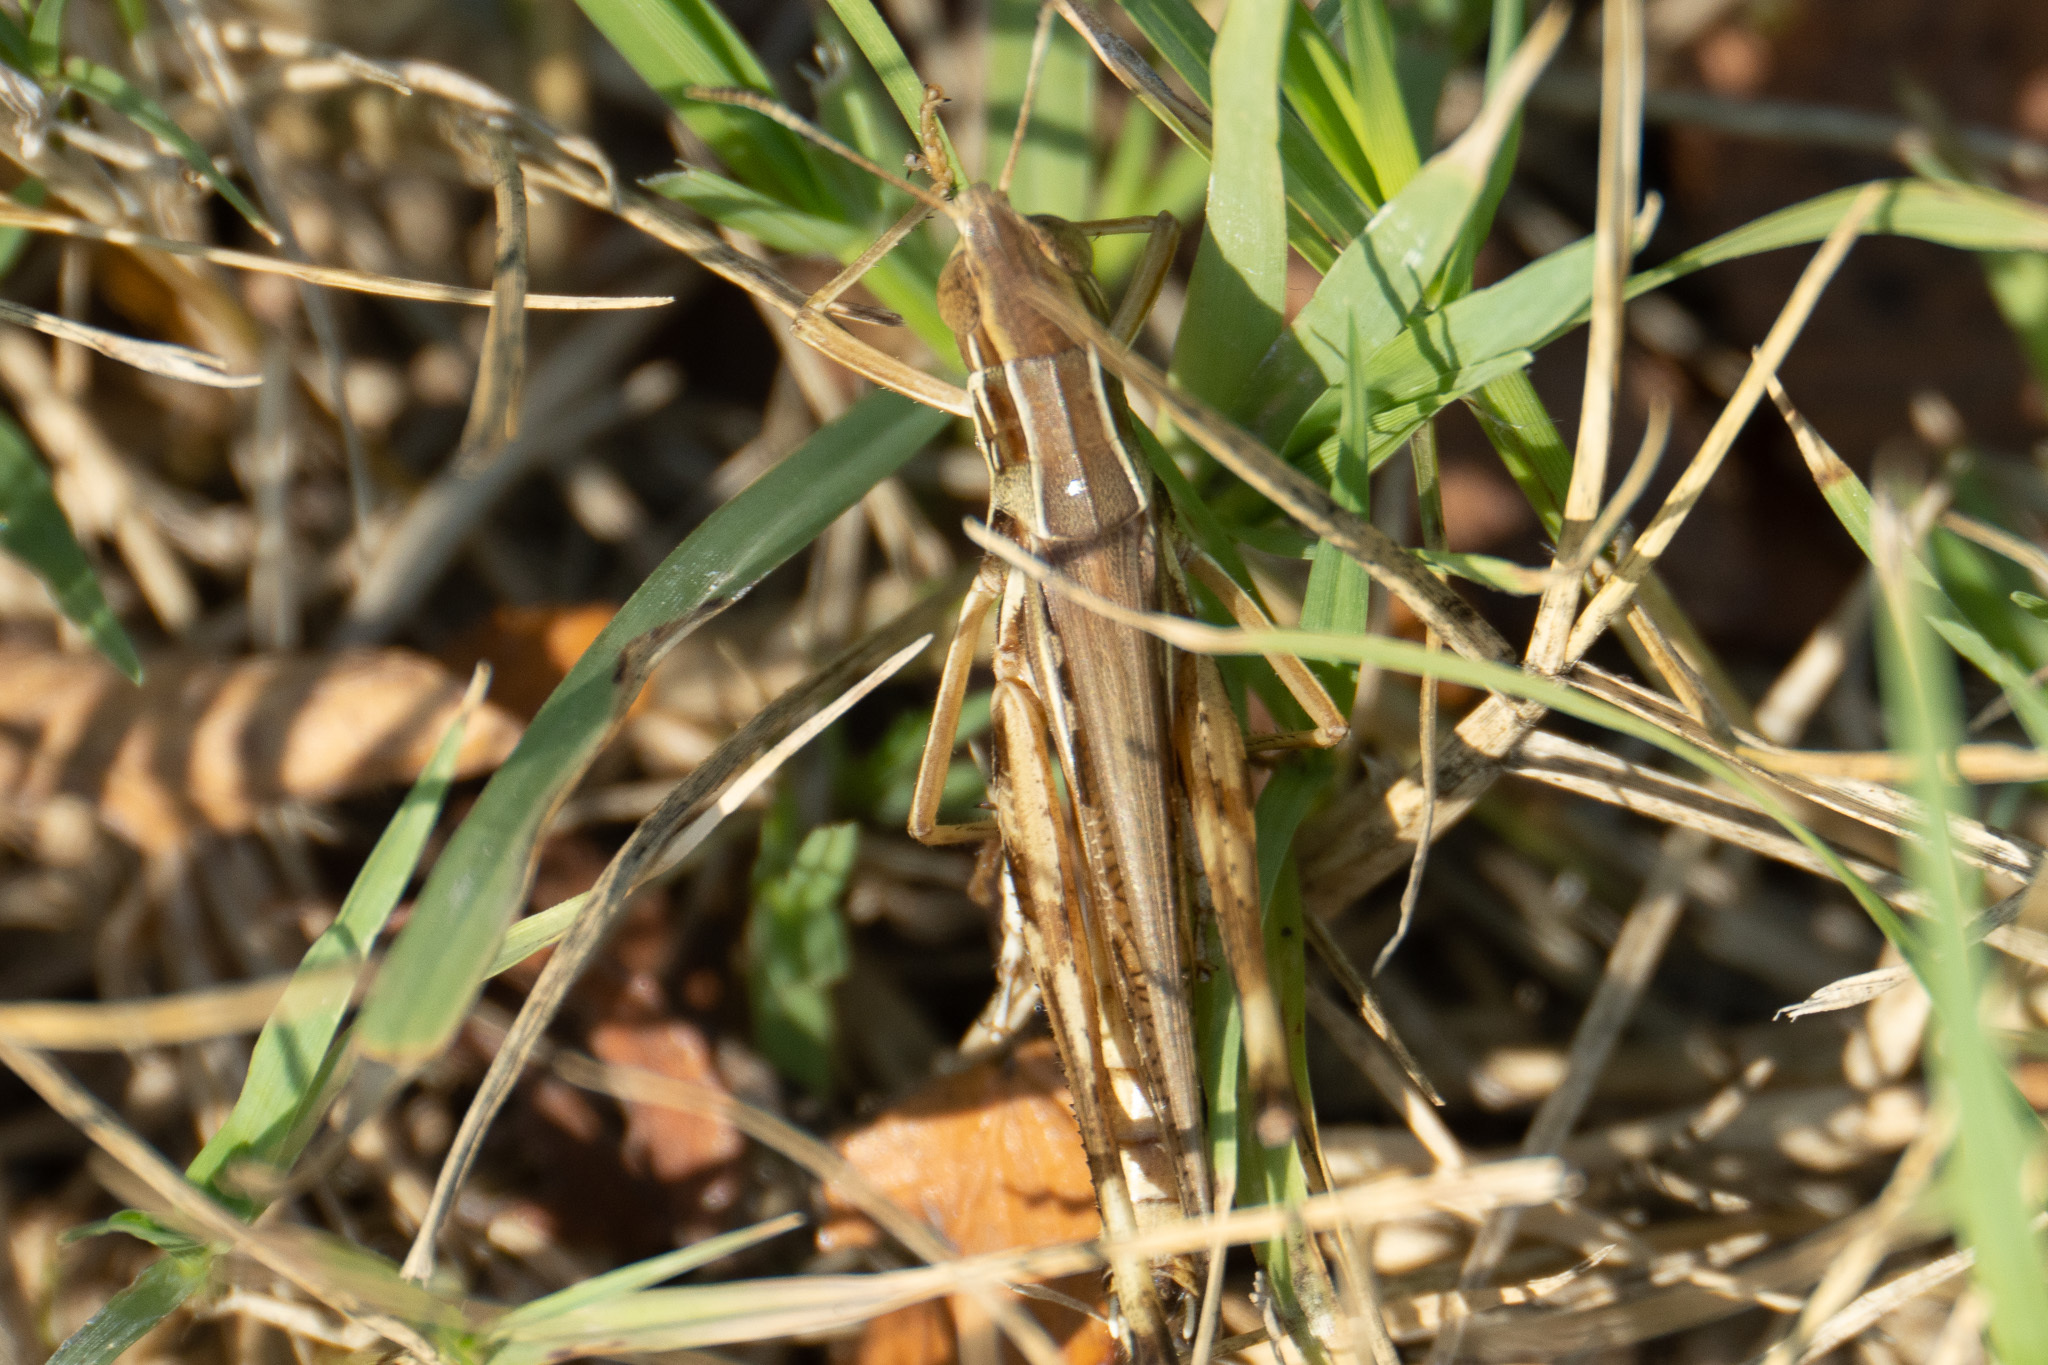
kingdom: Animalia
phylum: Arthropoda
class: Insecta
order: Orthoptera
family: Acrididae
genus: Syrbula
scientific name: Syrbula admirabilis
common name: Handsome grasshopper
